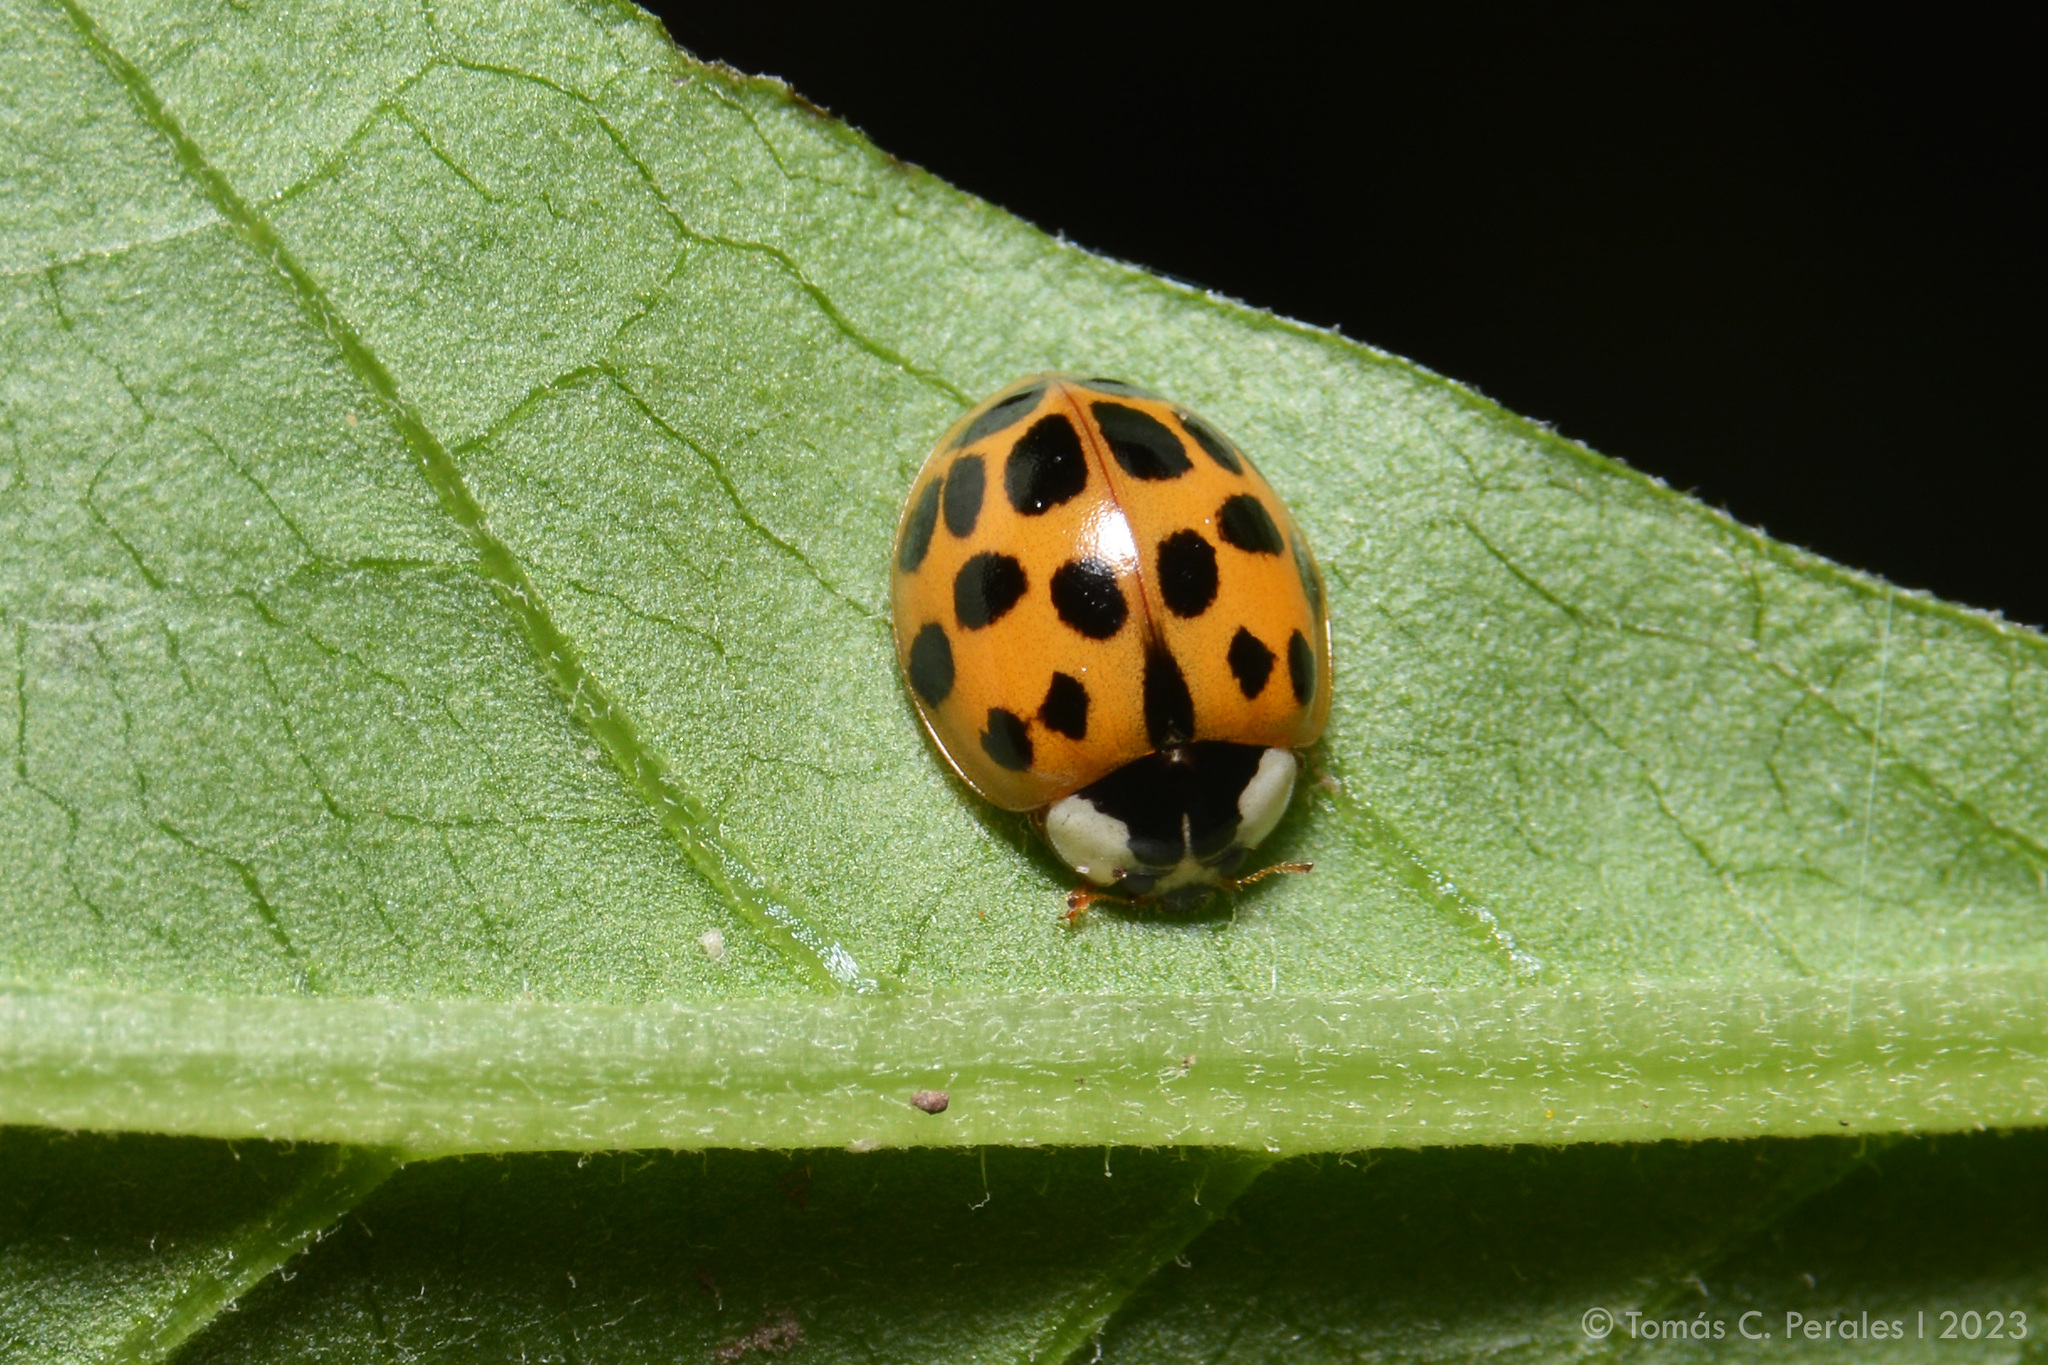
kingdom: Animalia
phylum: Arthropoda
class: Insecta
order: Coleoptera
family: Coccinellidae
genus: Harmonia
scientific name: Harmonia axyridis
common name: Harlequin ladybird
